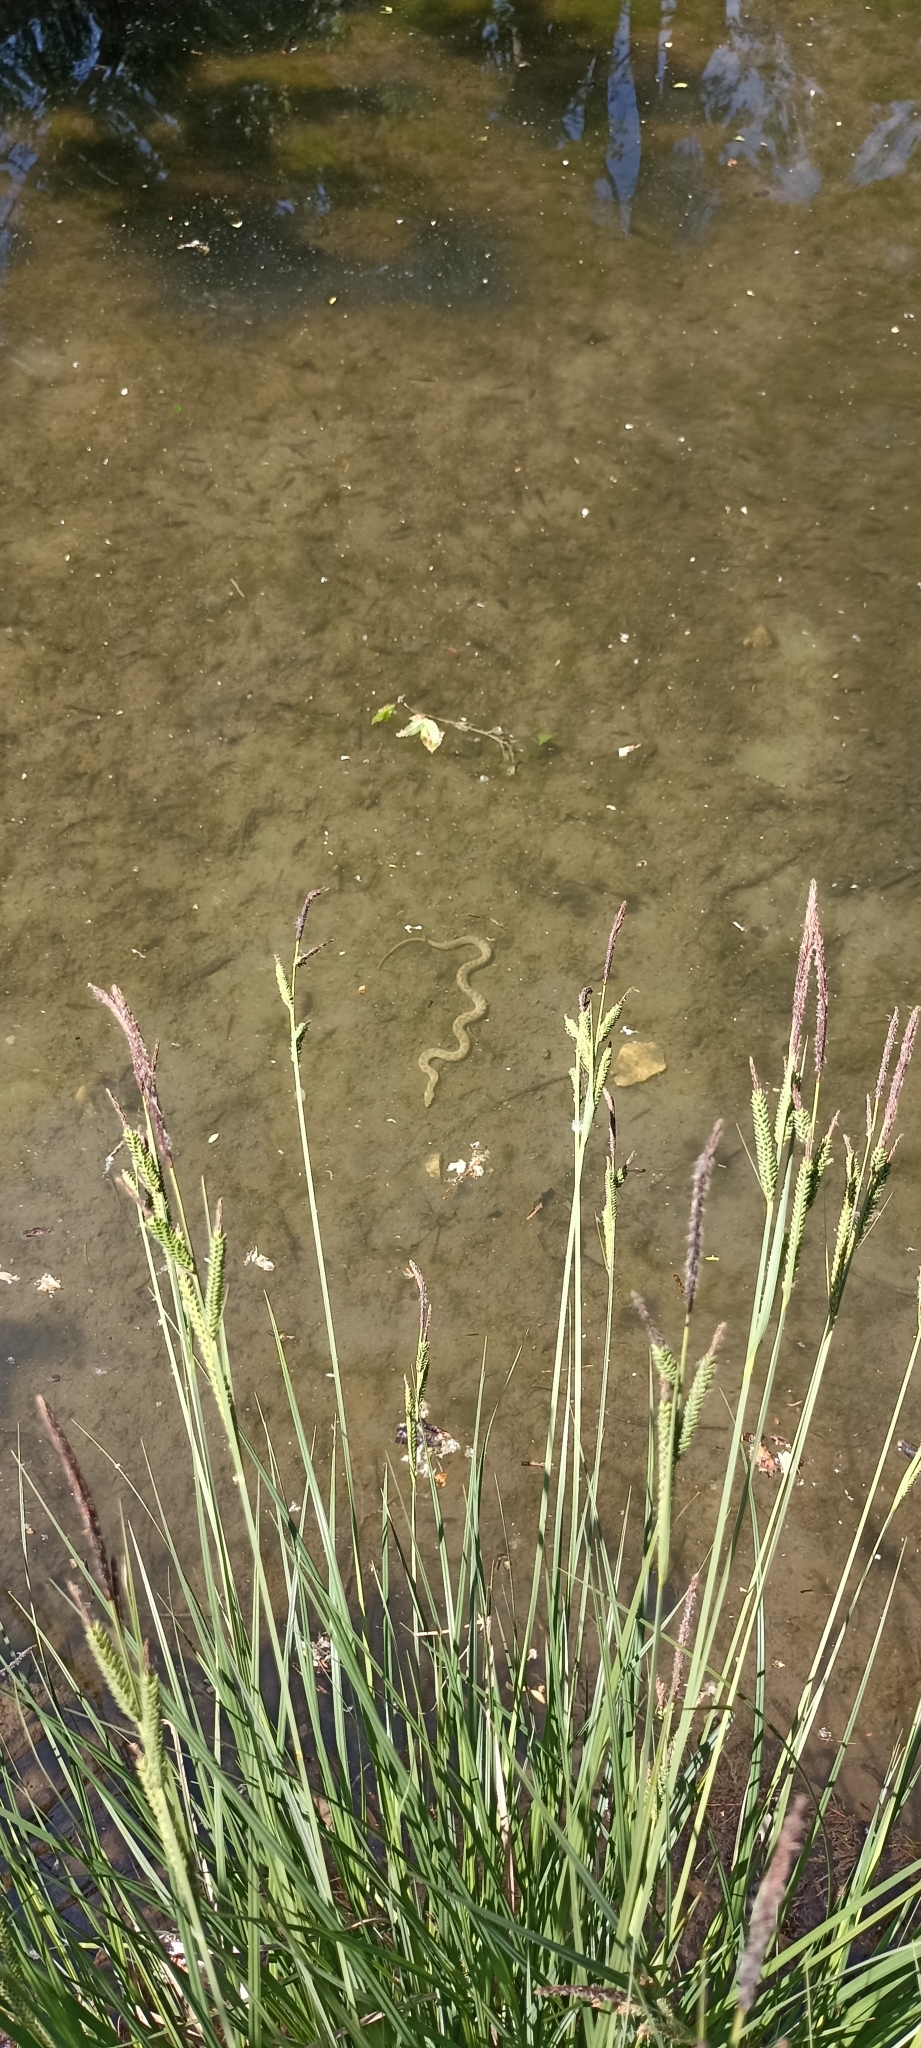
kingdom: Animalia
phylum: Chordata
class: Squamata
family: Colubridae
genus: Natrix
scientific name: Natrix maura
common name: Viperine water snake
